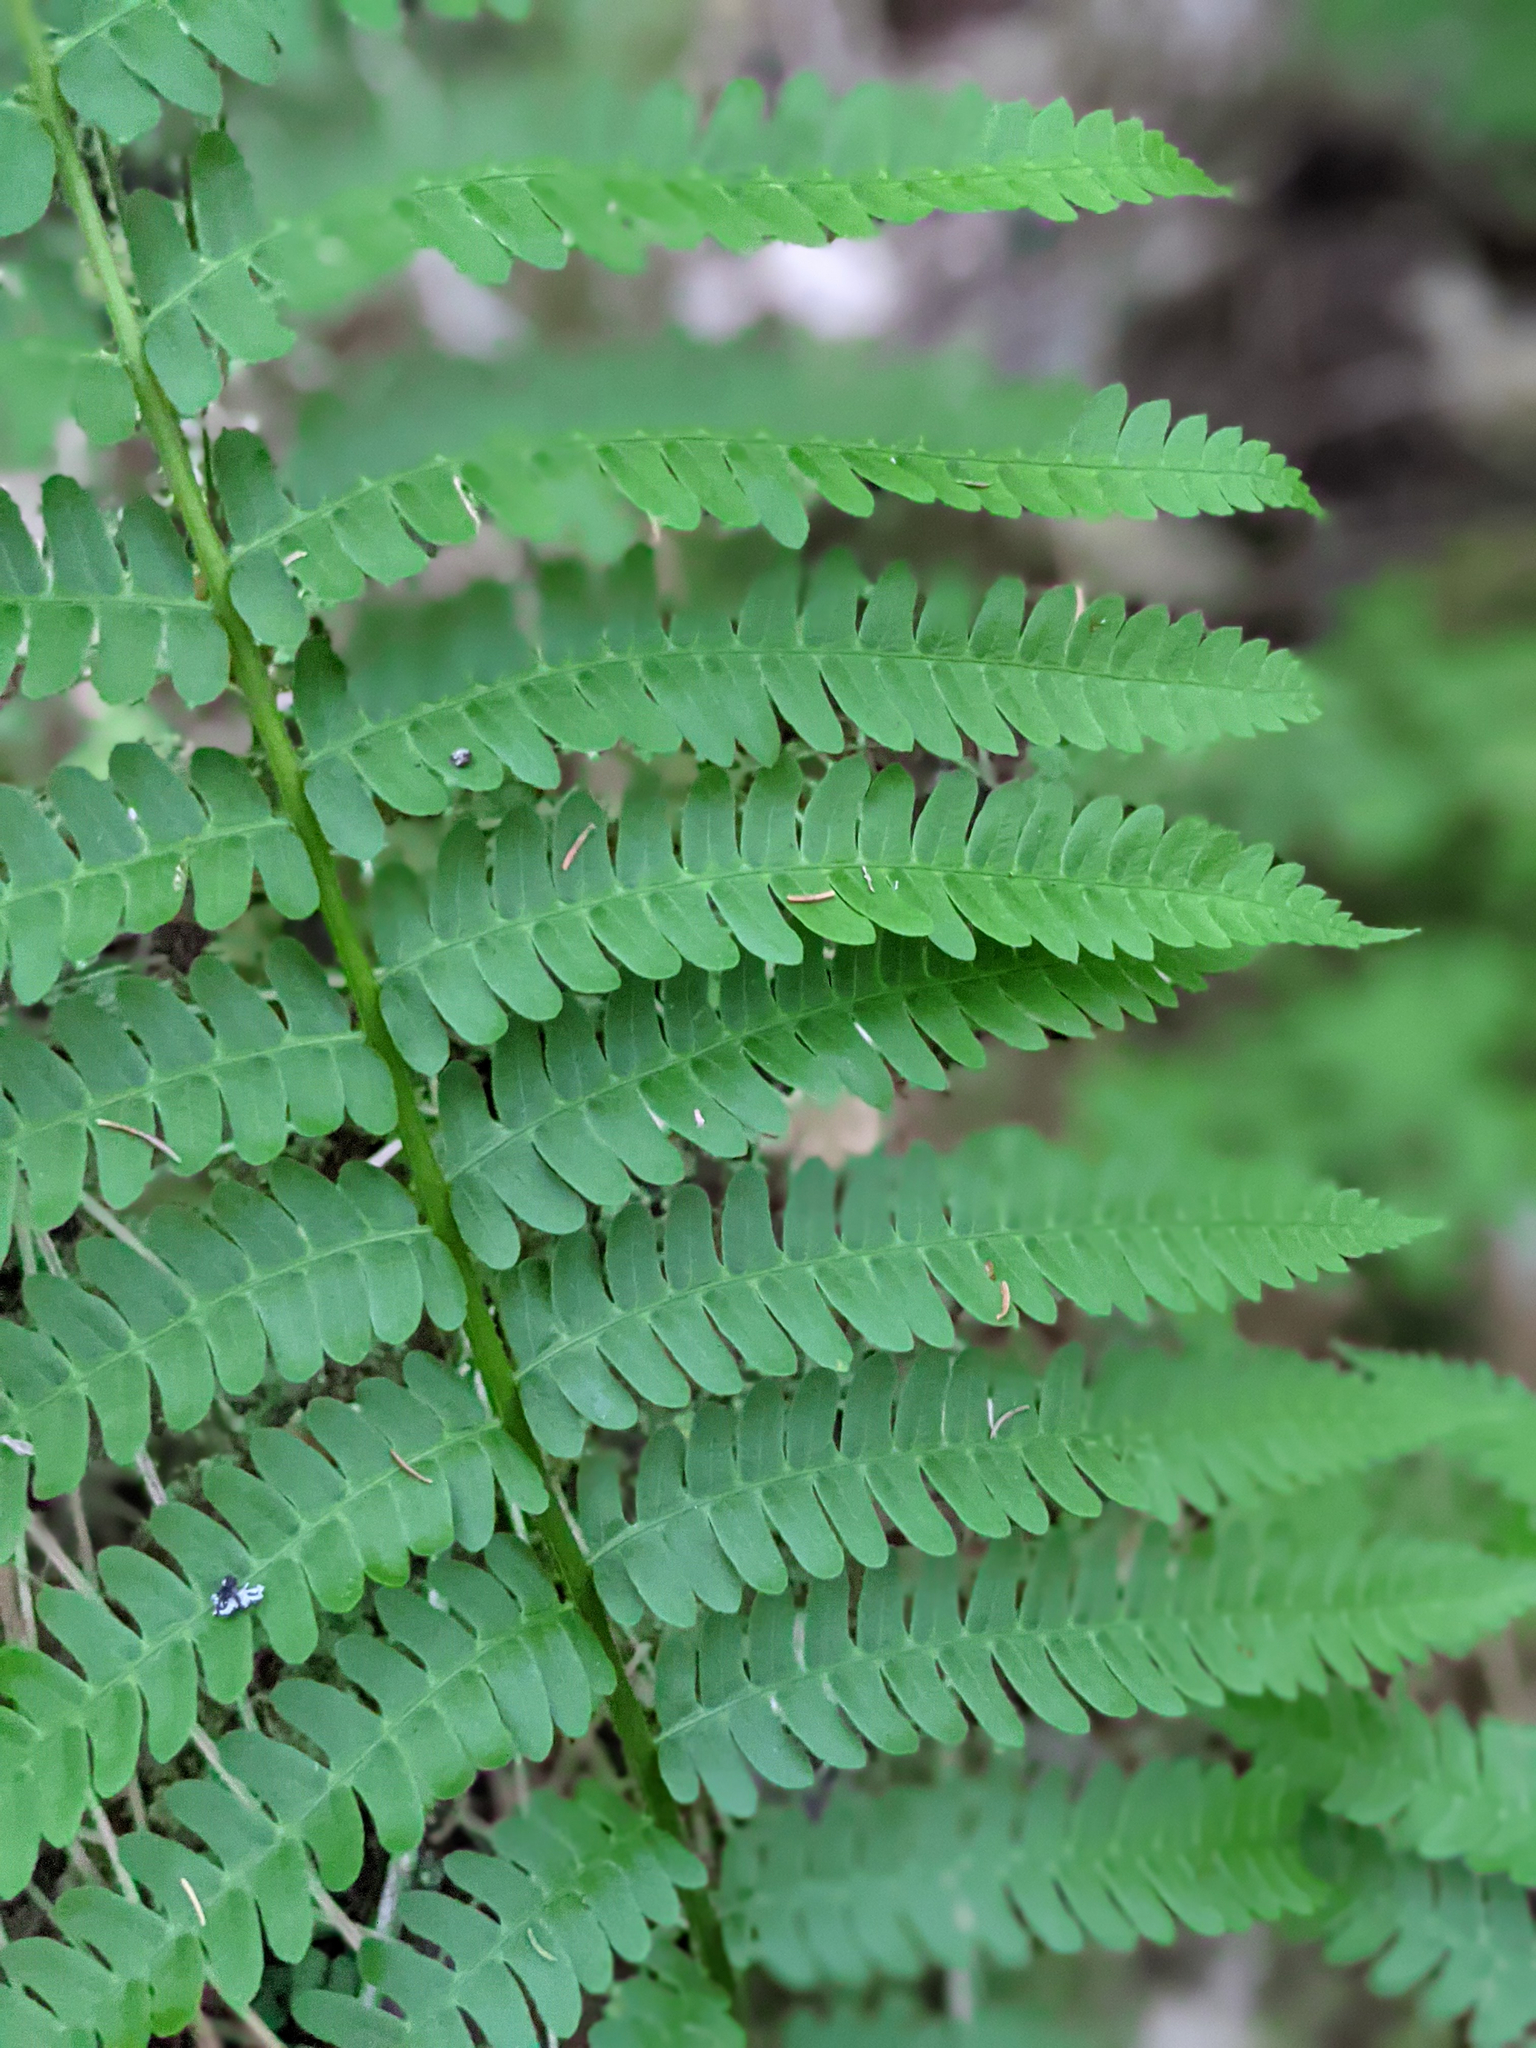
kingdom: Plantae
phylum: Tracheophyta
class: Polypodiopsida
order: Osmundales
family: Osmundaceae
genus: Osmundastrum
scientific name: Osmundastrum cinnamomeum
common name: Cinnamon fern
